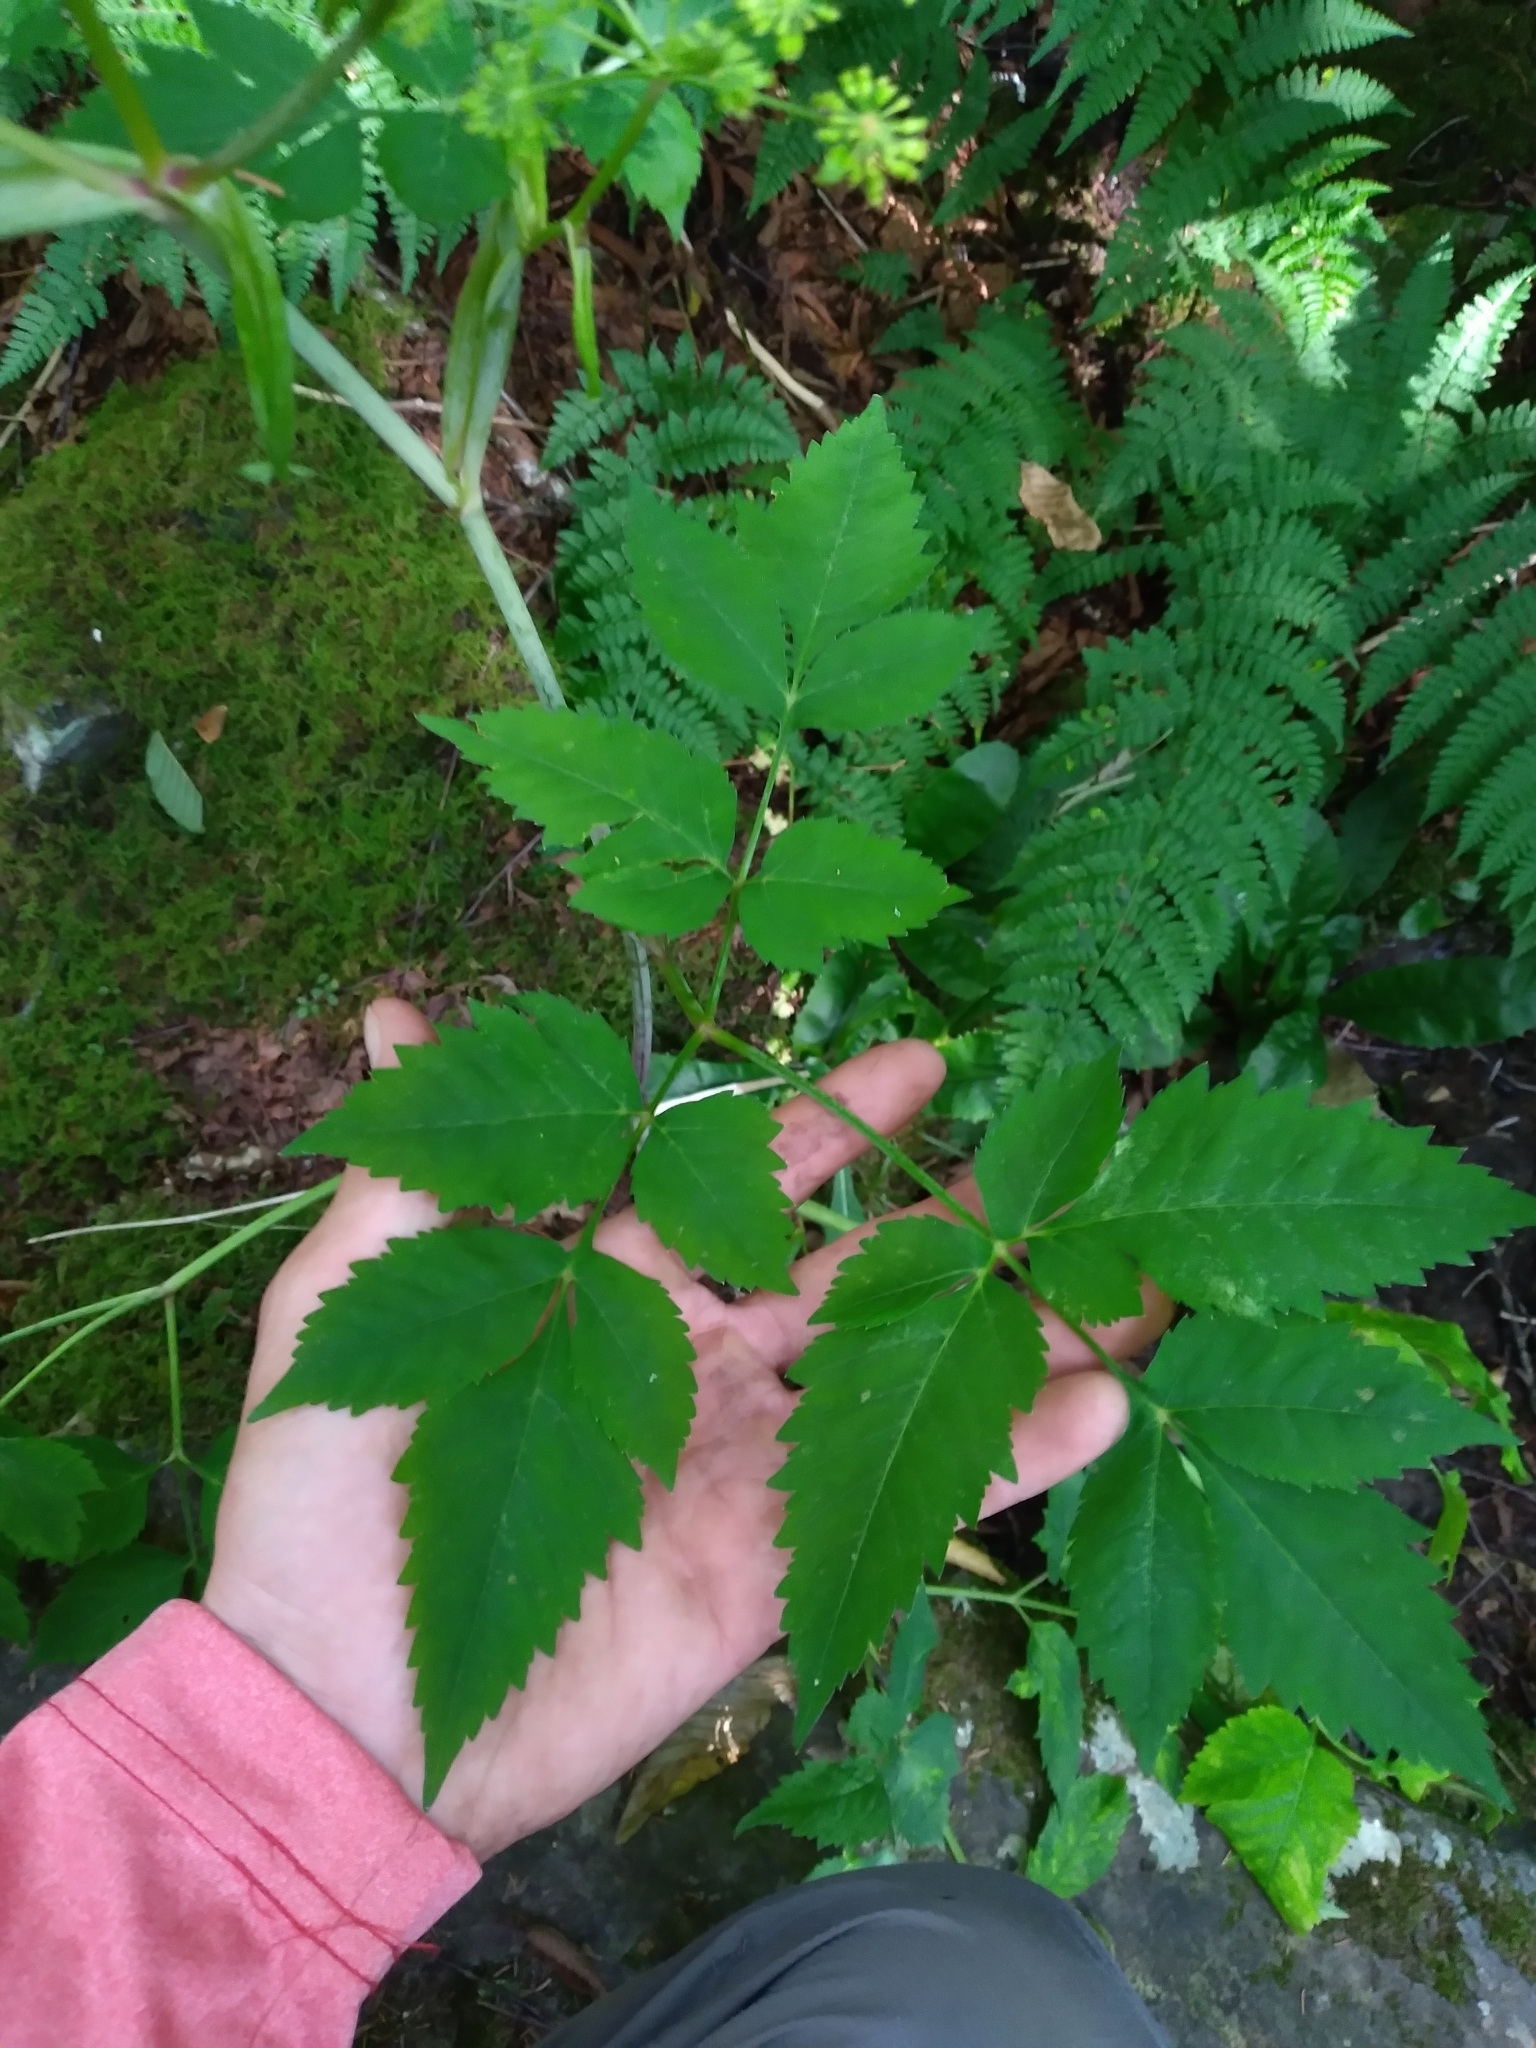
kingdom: Plantae
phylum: Tracheophyta
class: Magnoliopsida
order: Apiales
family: Apiaceae
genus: Angelica
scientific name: Angelica triquinata
